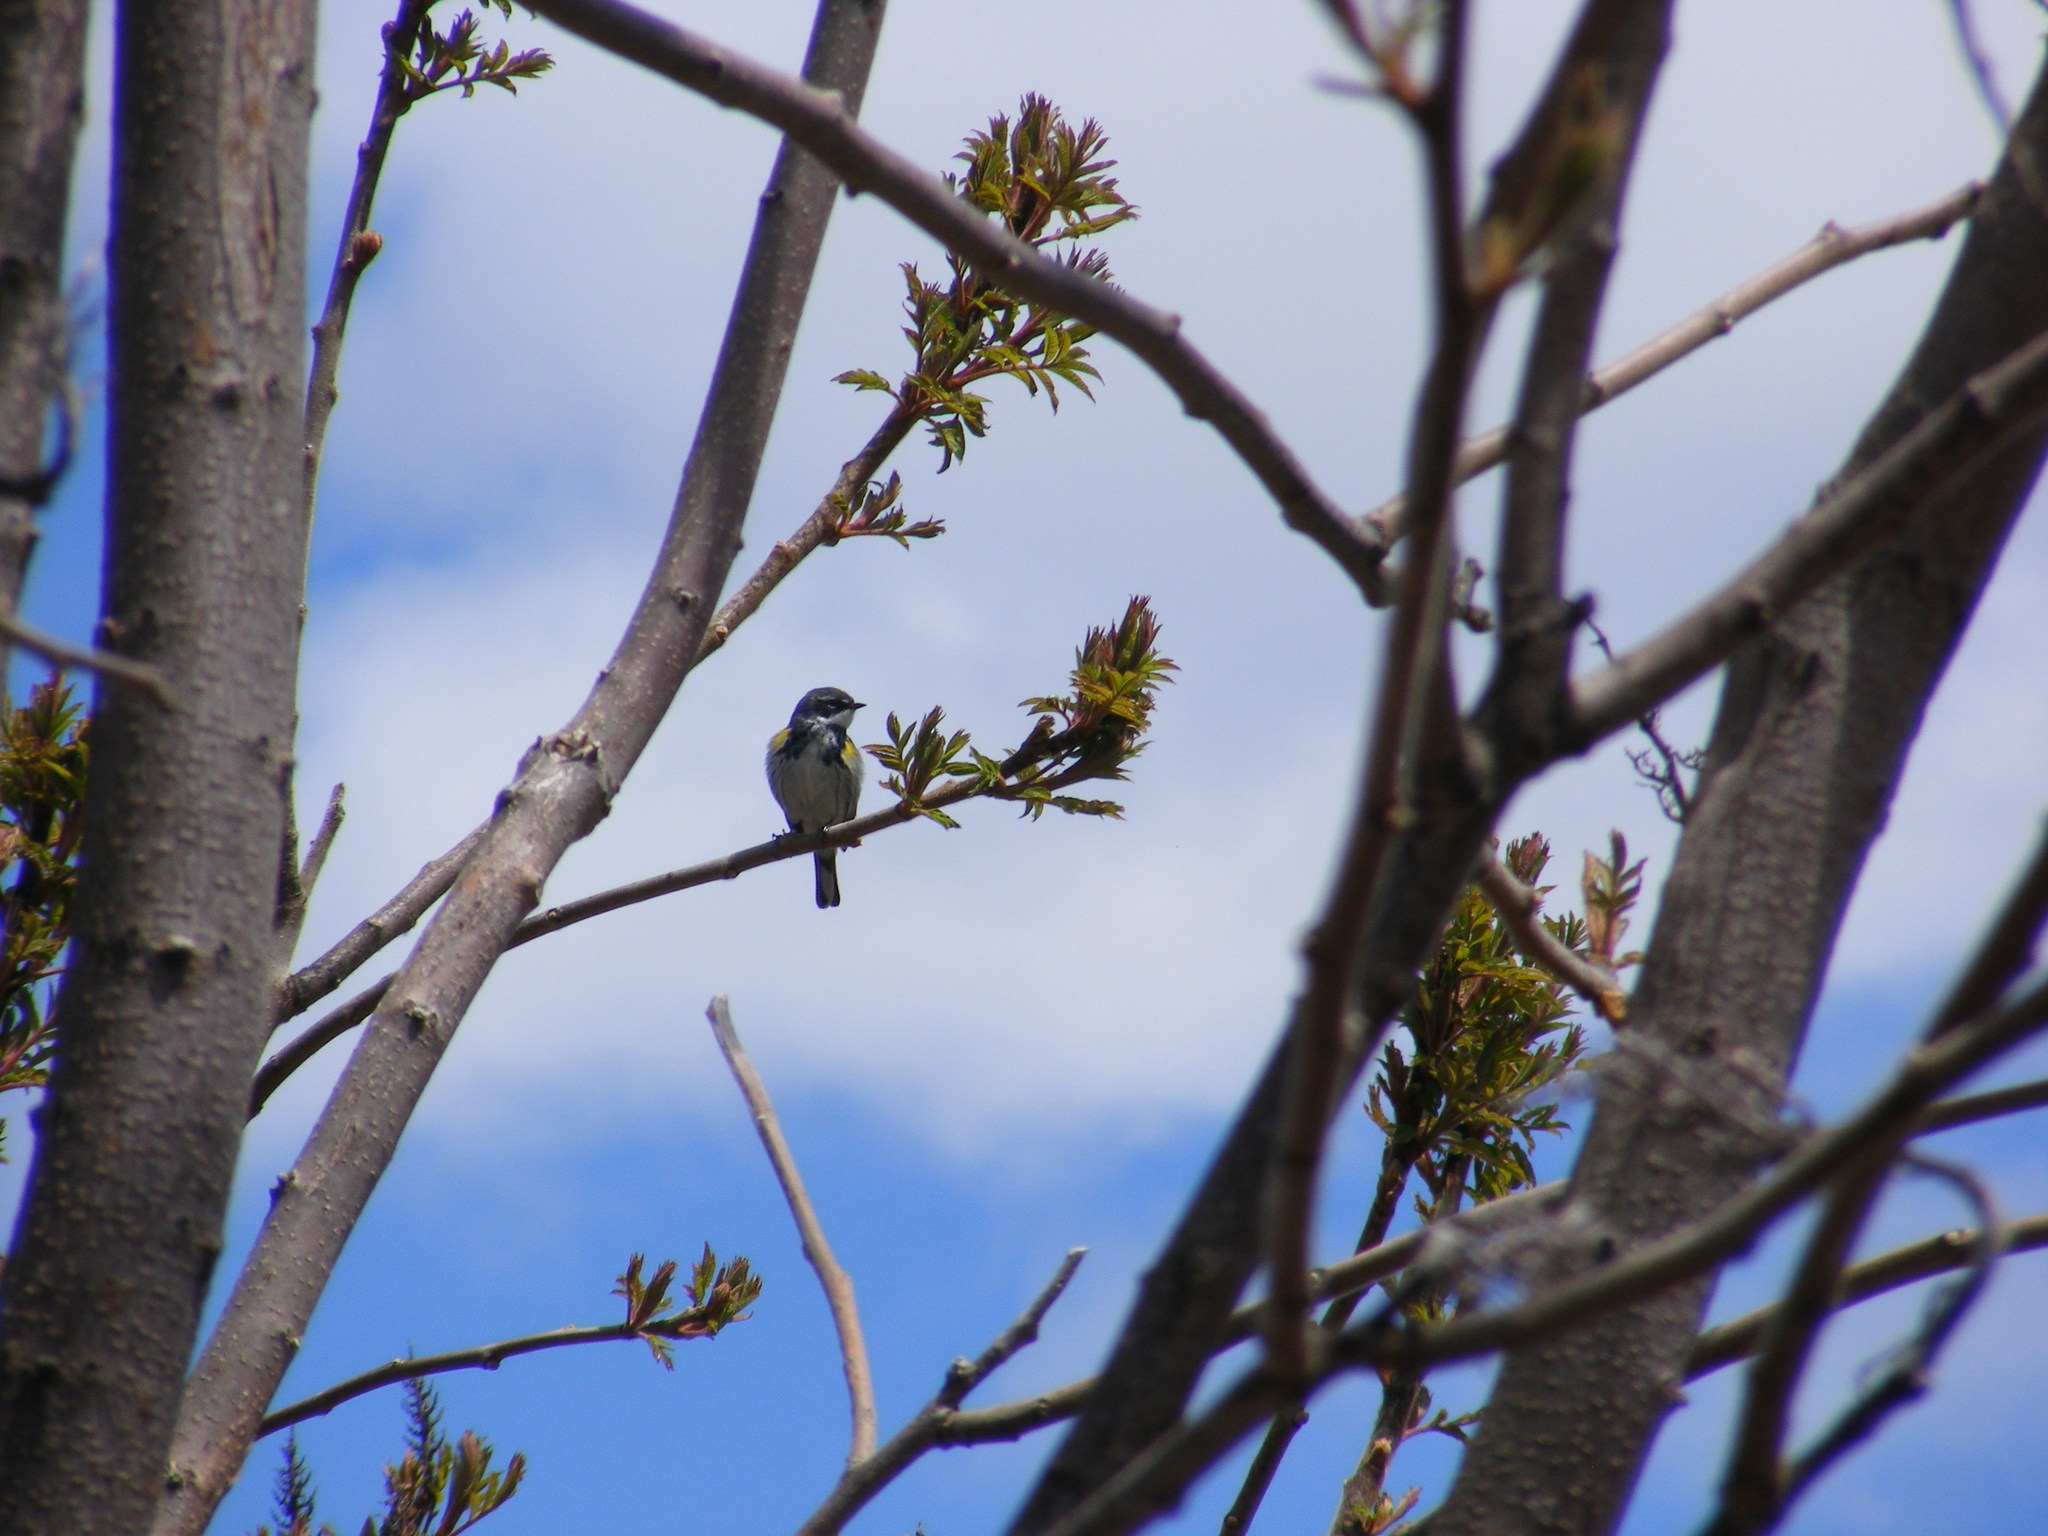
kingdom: Animalia
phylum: Chordata
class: Aves
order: Passeriformes
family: Parulidae
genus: Setophaga
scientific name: Setophaga coronata
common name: Myrtle warbler
